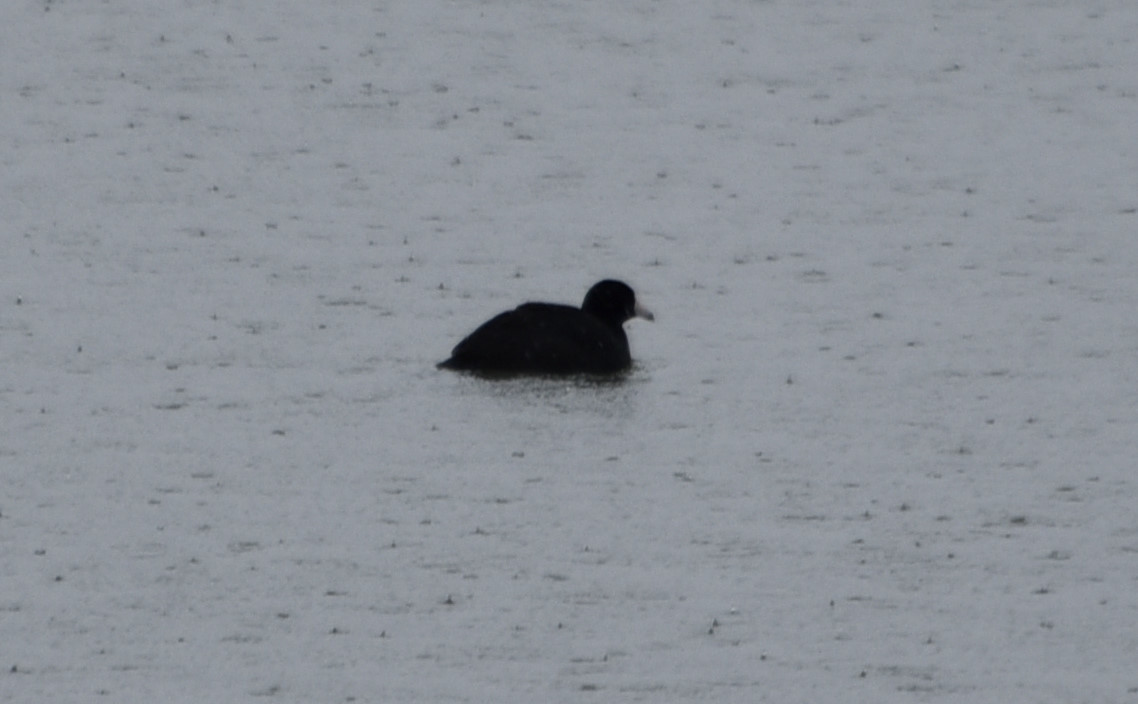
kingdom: Animalia
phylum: Chordata
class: Aves
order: Gruiformes
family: Rallidae
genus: Fulica
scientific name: Fulica americana
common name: American coot
